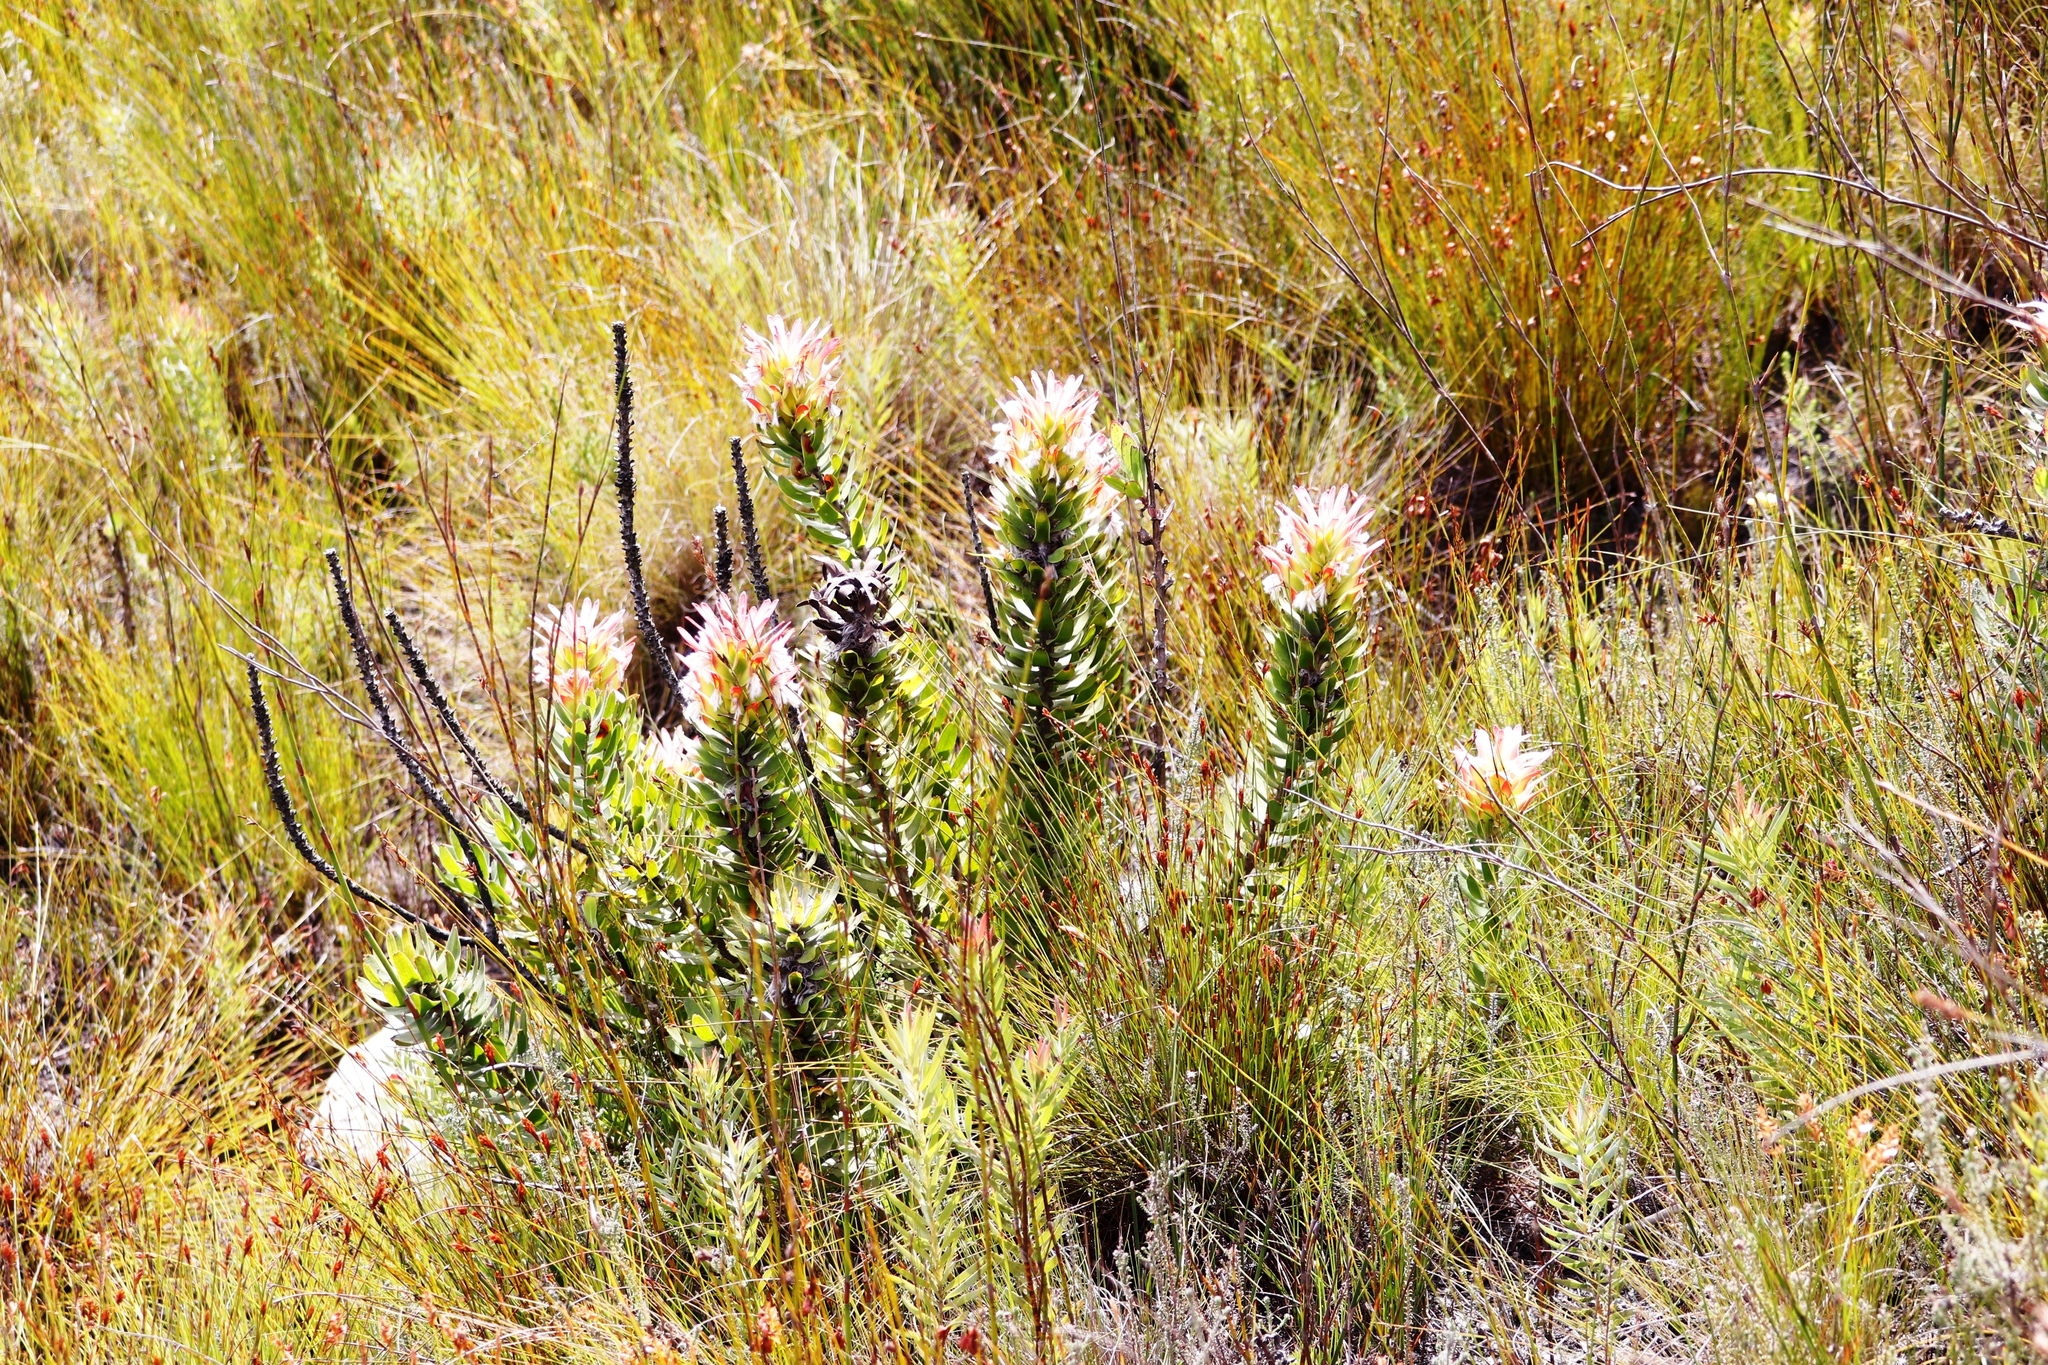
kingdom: Plantae
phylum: Tracheophyta
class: Magnoliopsida
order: Proteales
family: Proteaceae
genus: Mimetes
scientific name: Mimetes cucullatus
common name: Common pagoda
